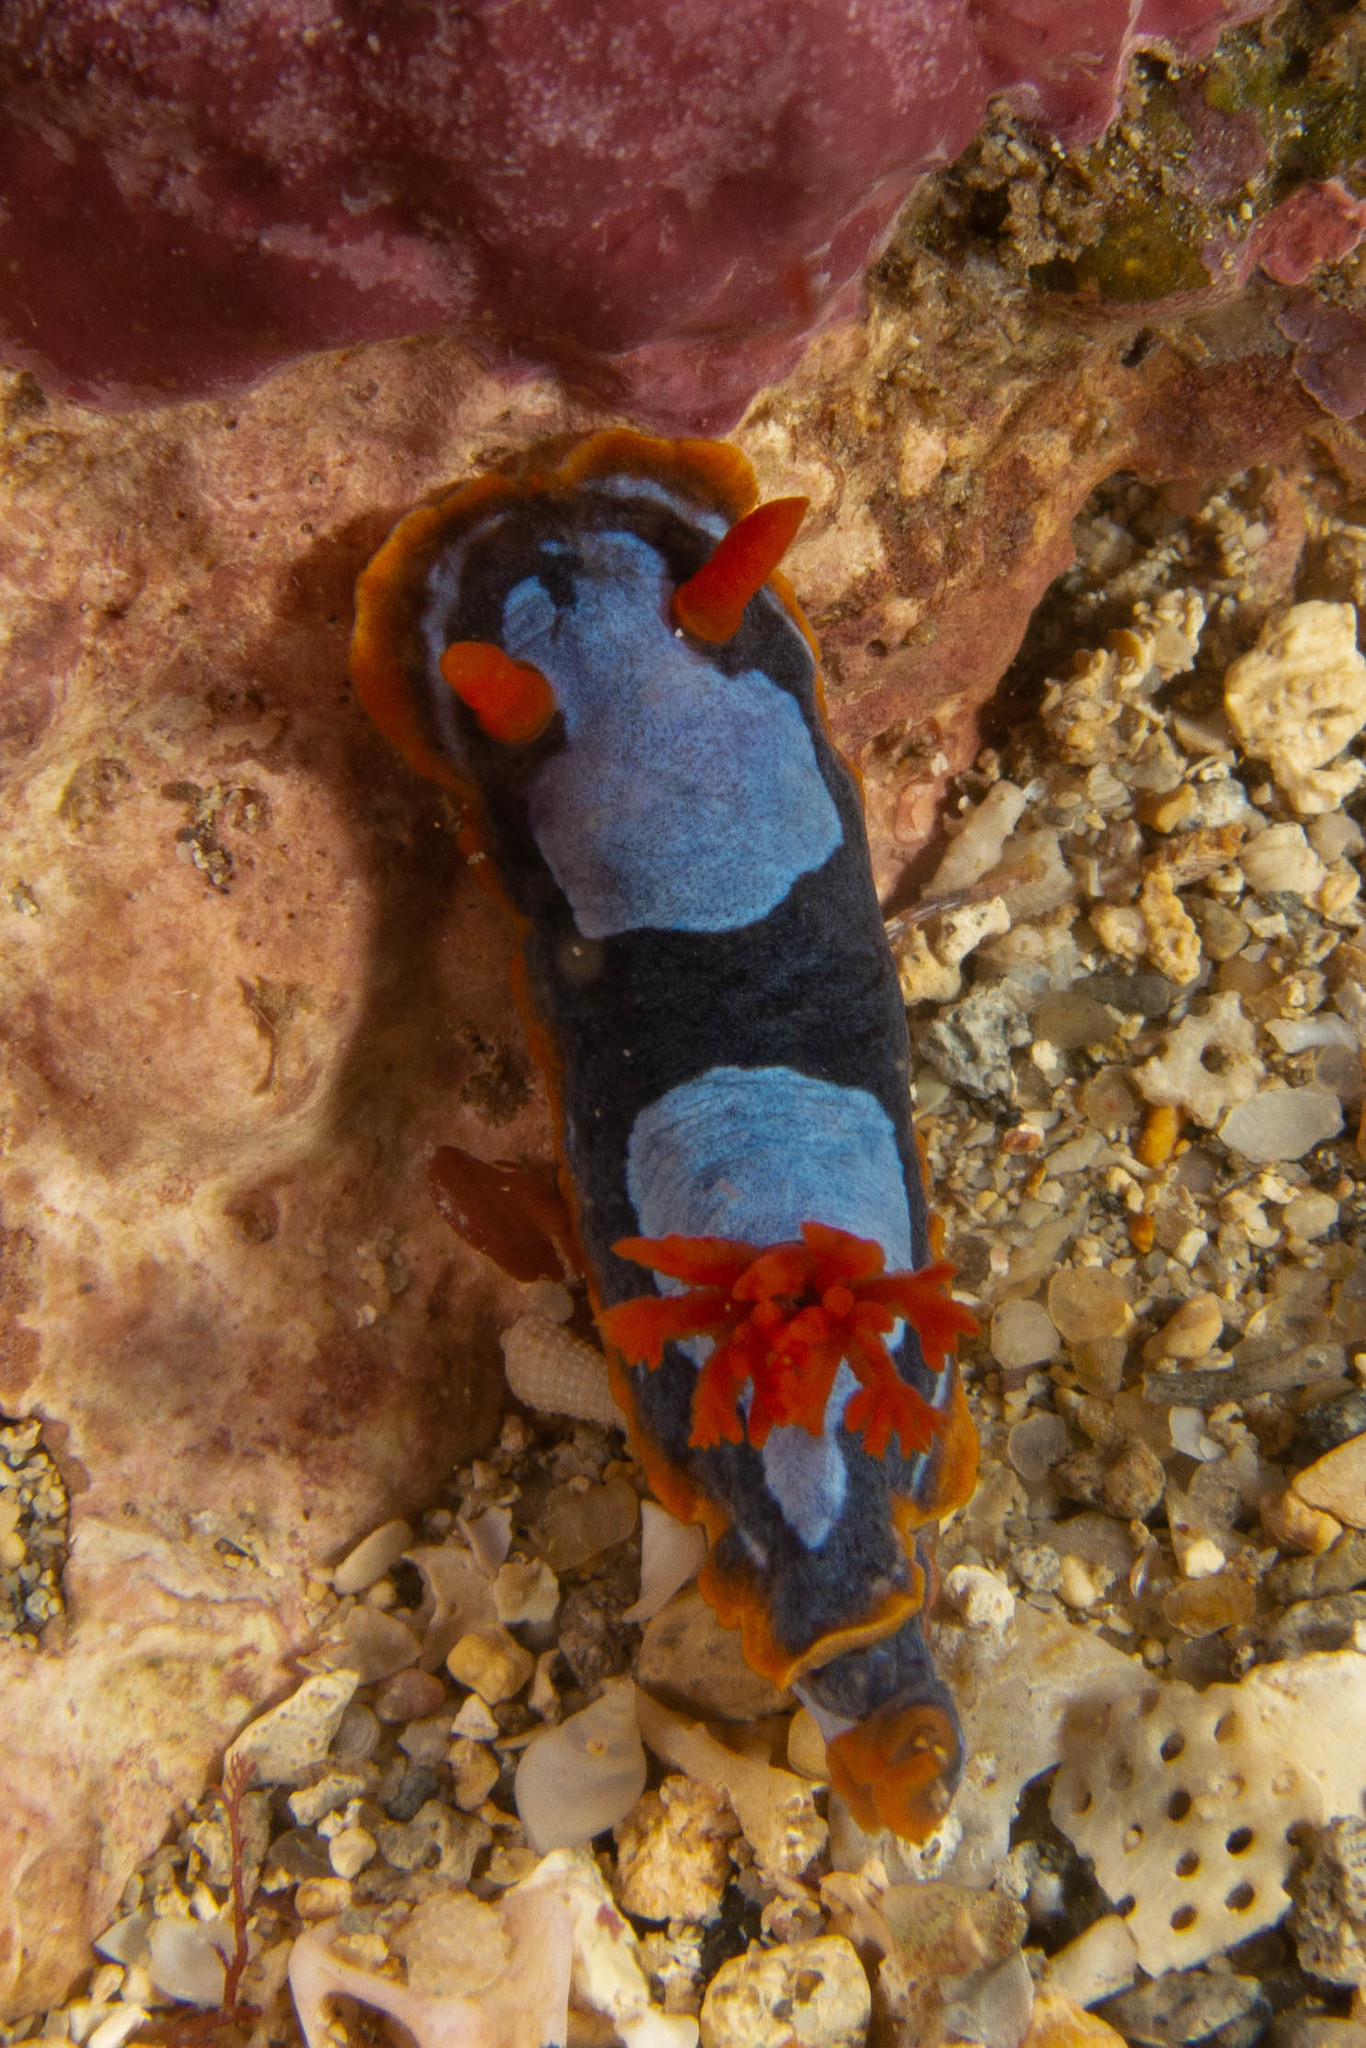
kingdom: Animalia
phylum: Mollusca
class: Gastropoda
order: Nudibranchia
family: Chromodorididae
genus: Chromodoris
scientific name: Chromodoris westraliensis
